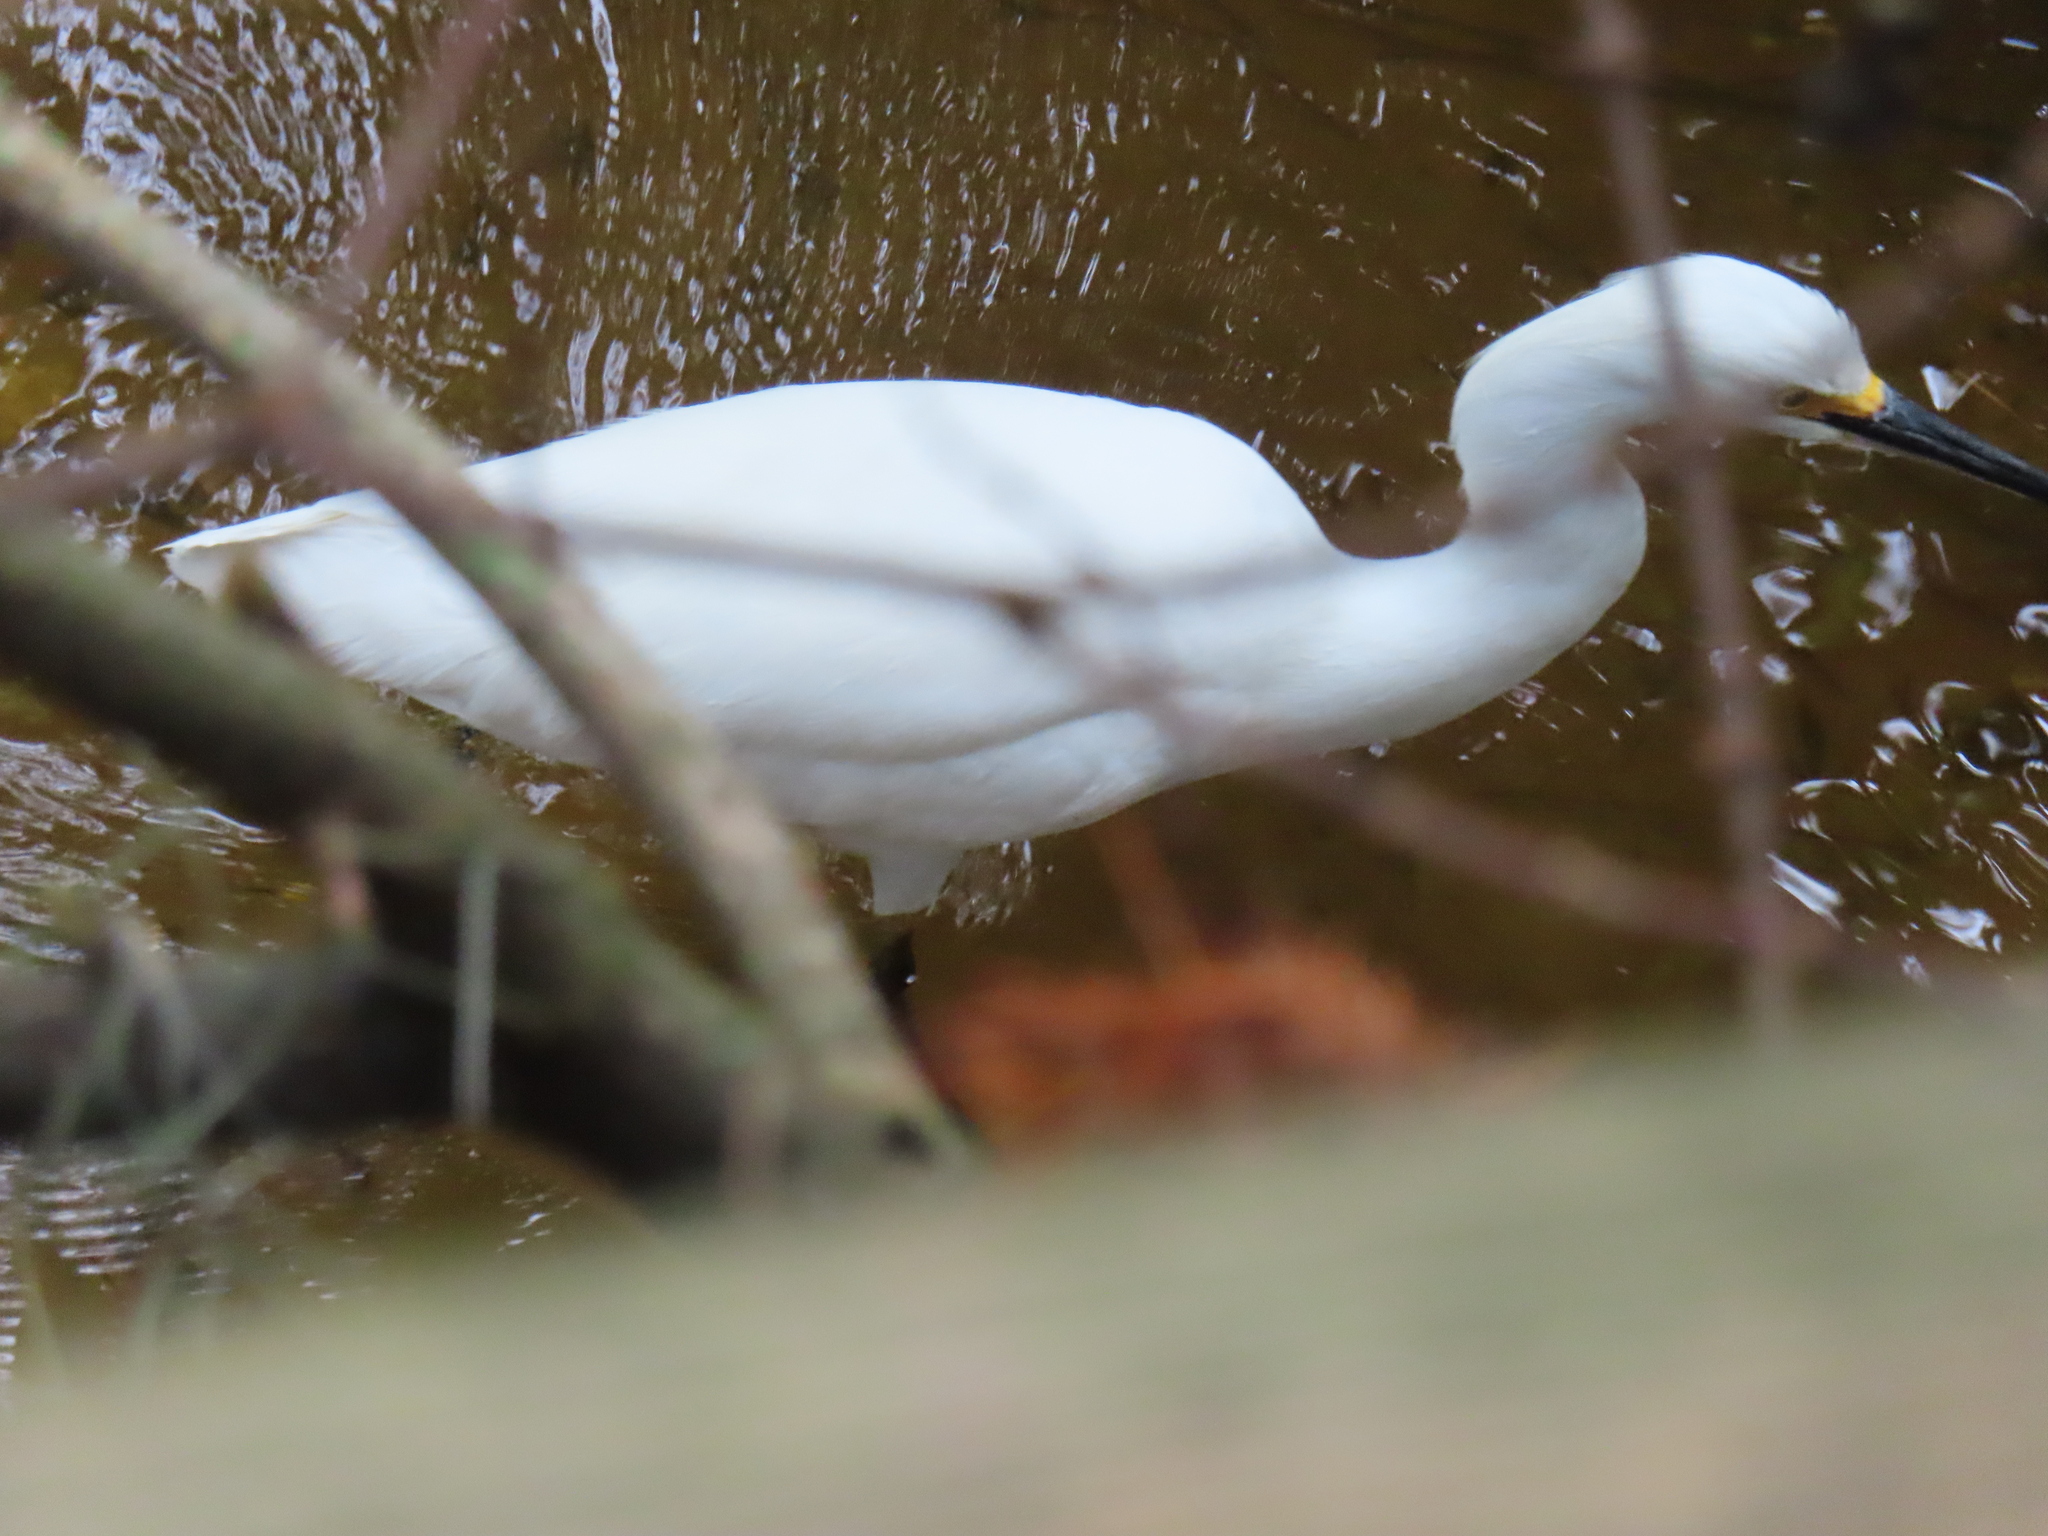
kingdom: Animalia
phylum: Chordata
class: Aves
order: Pelecaniformes
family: Ardeidae
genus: Egretta
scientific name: Egretta thula
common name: Snowy egret
